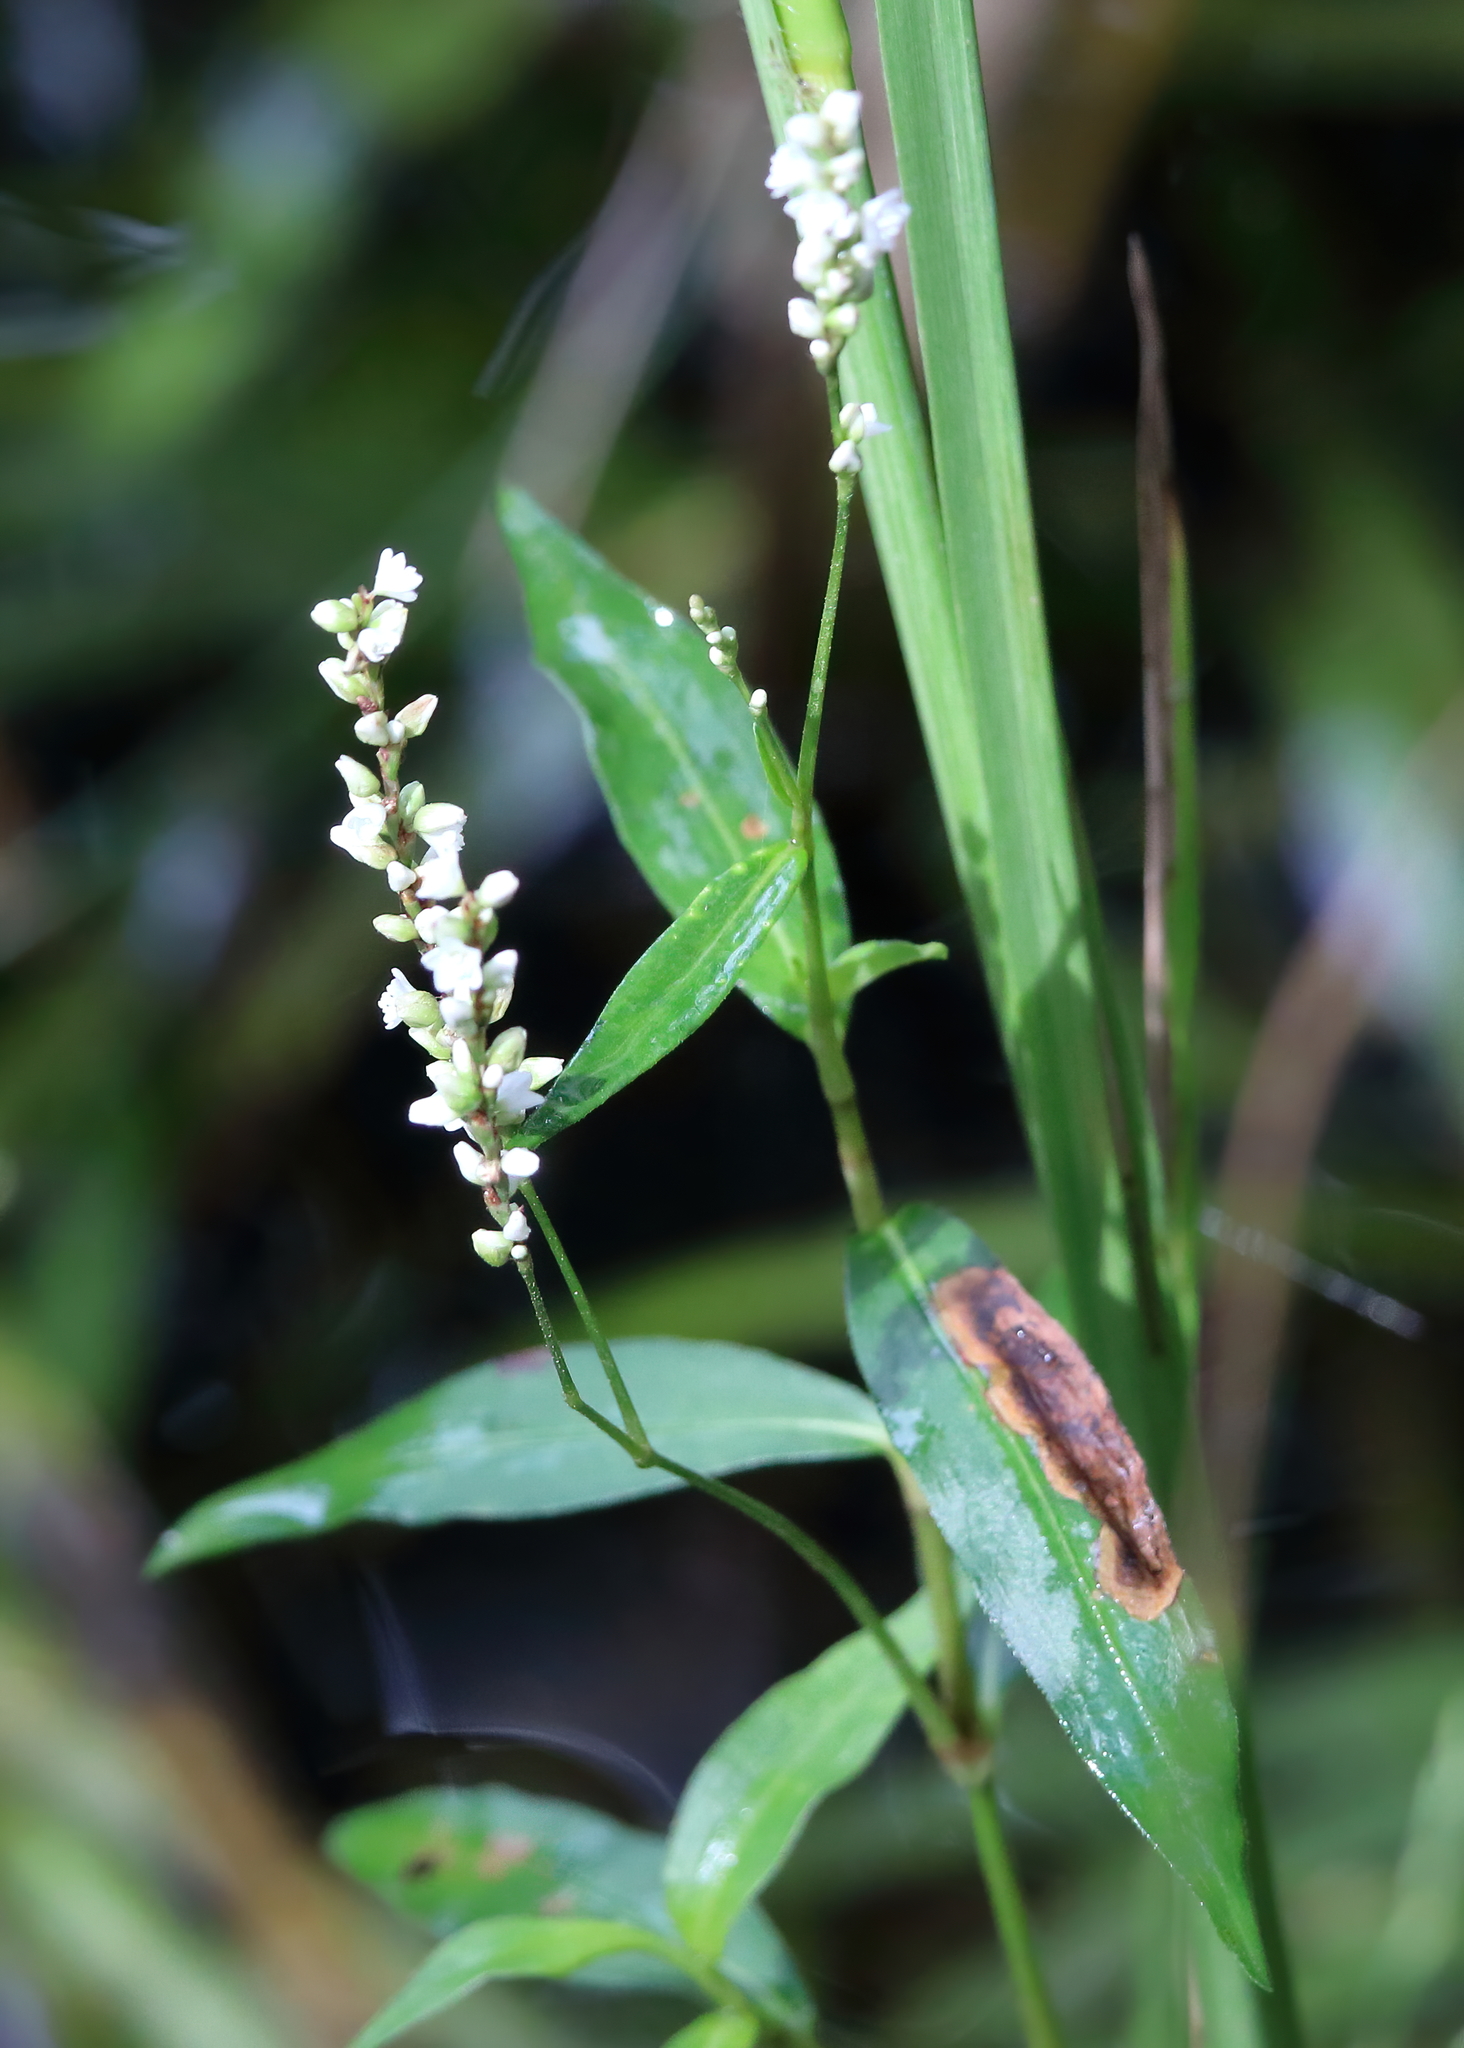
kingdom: Plantae
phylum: Tracheophyta
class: Magnoliopsida
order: Caryophyllales
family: Polygonaceae
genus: Persicaria
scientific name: Persicaria punctata
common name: Dotted smartweed
